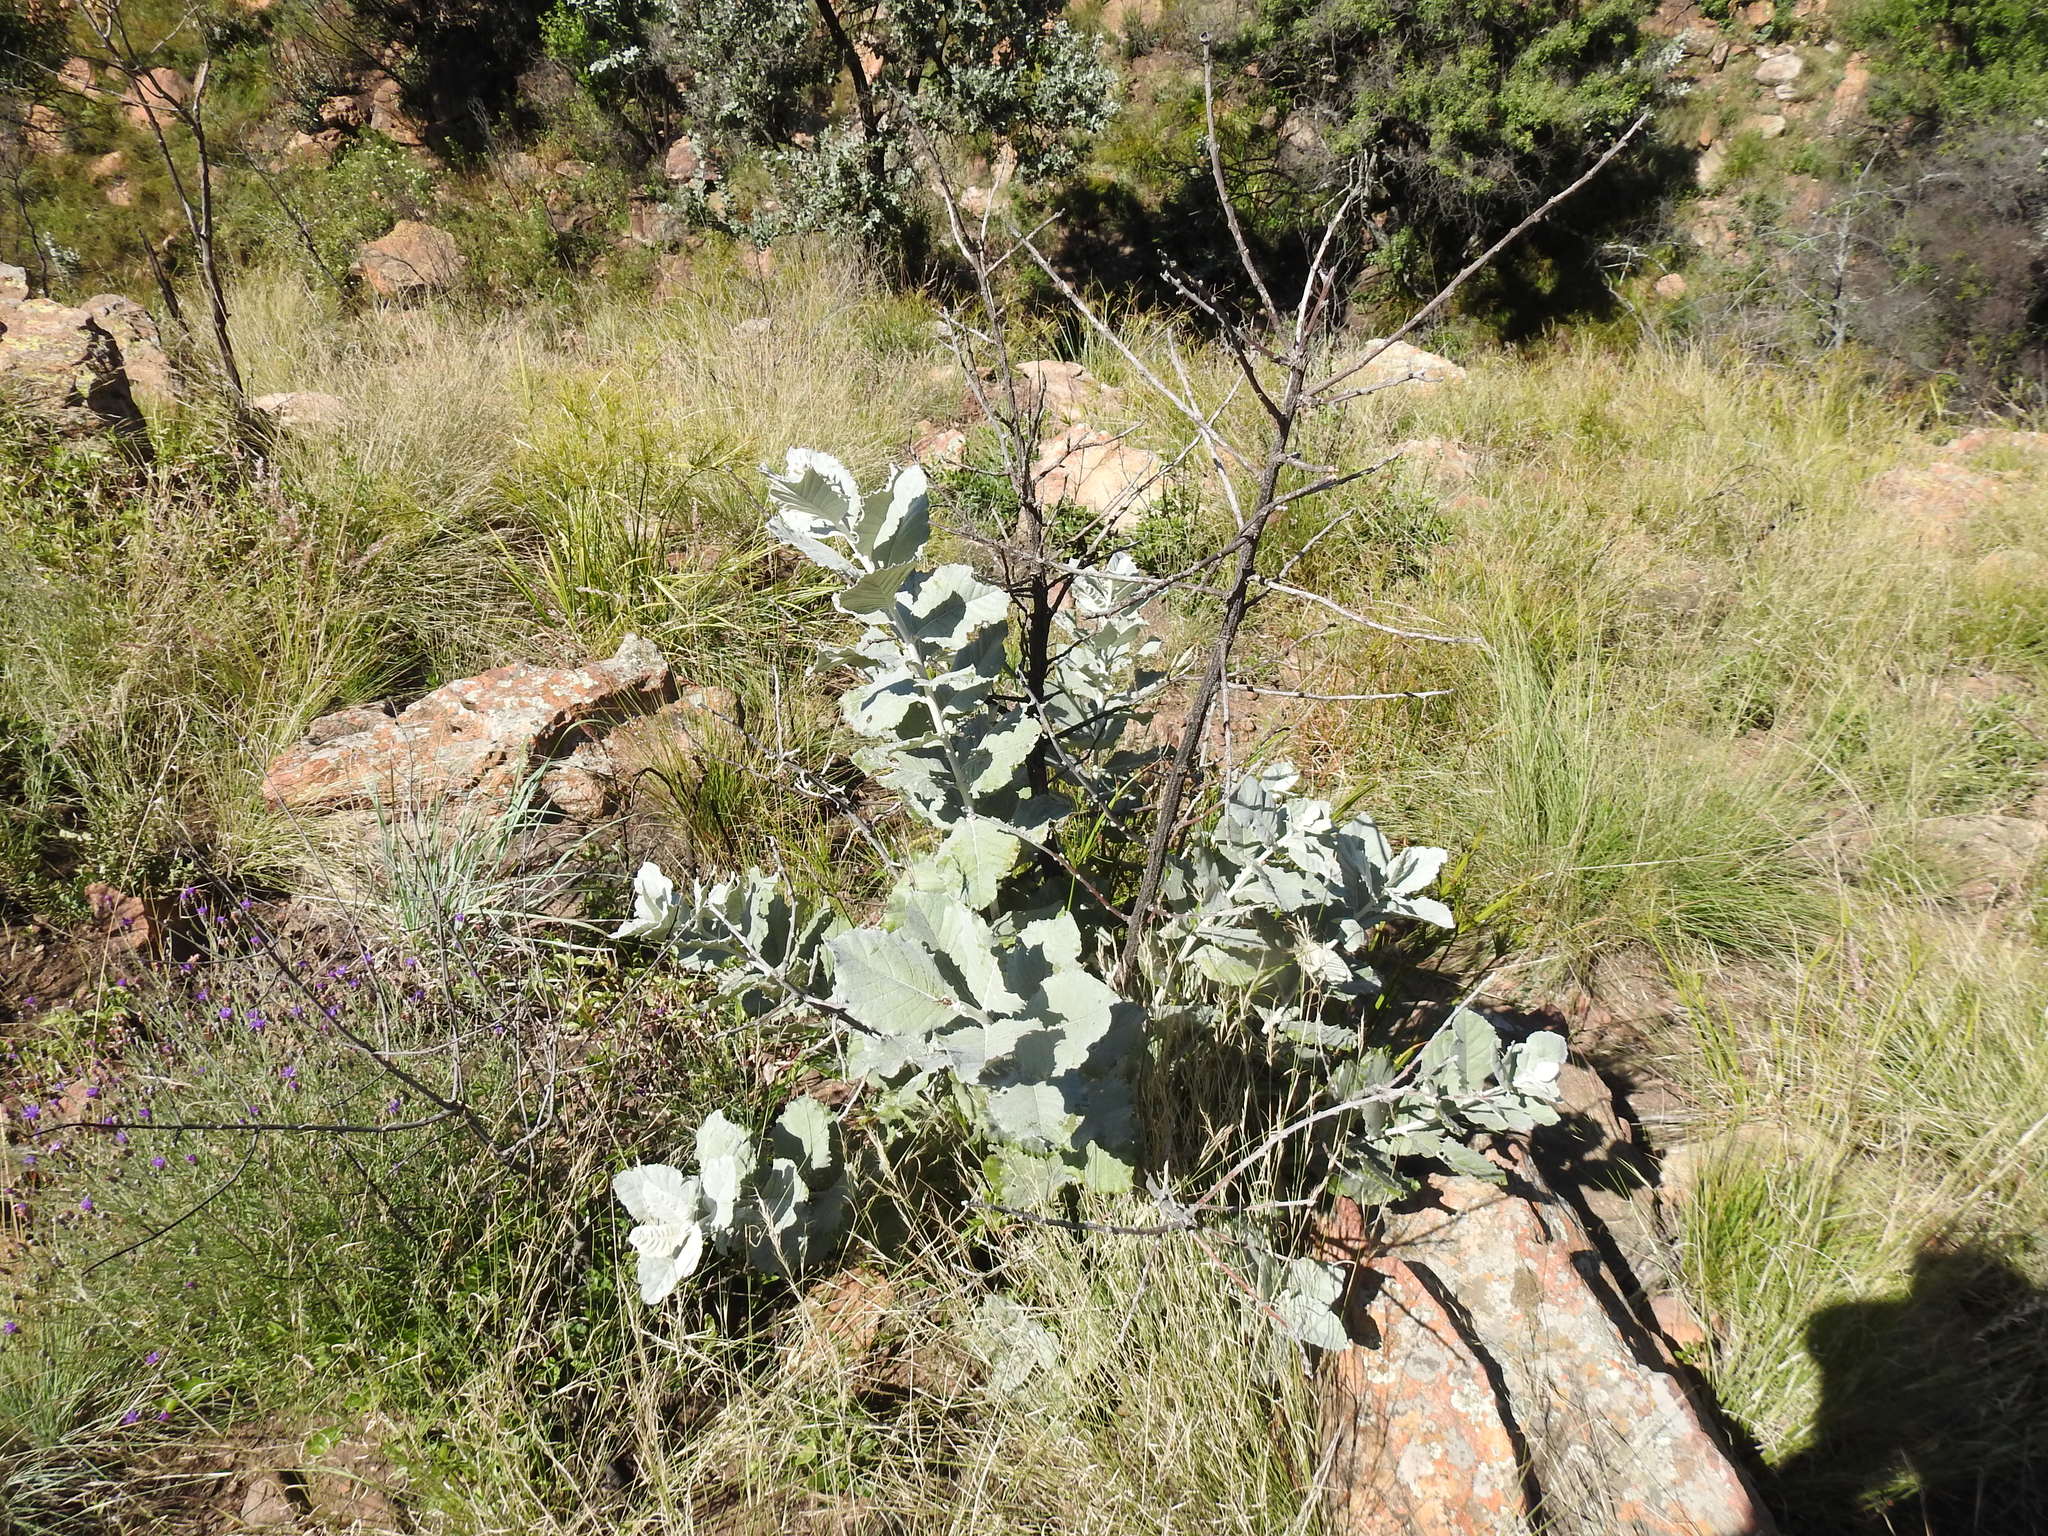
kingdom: Plantae
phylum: Tracheophyta
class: Magnoliopsida
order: Asterales
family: Asteraceae
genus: Brachylaena
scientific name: Brachylaena discolor
